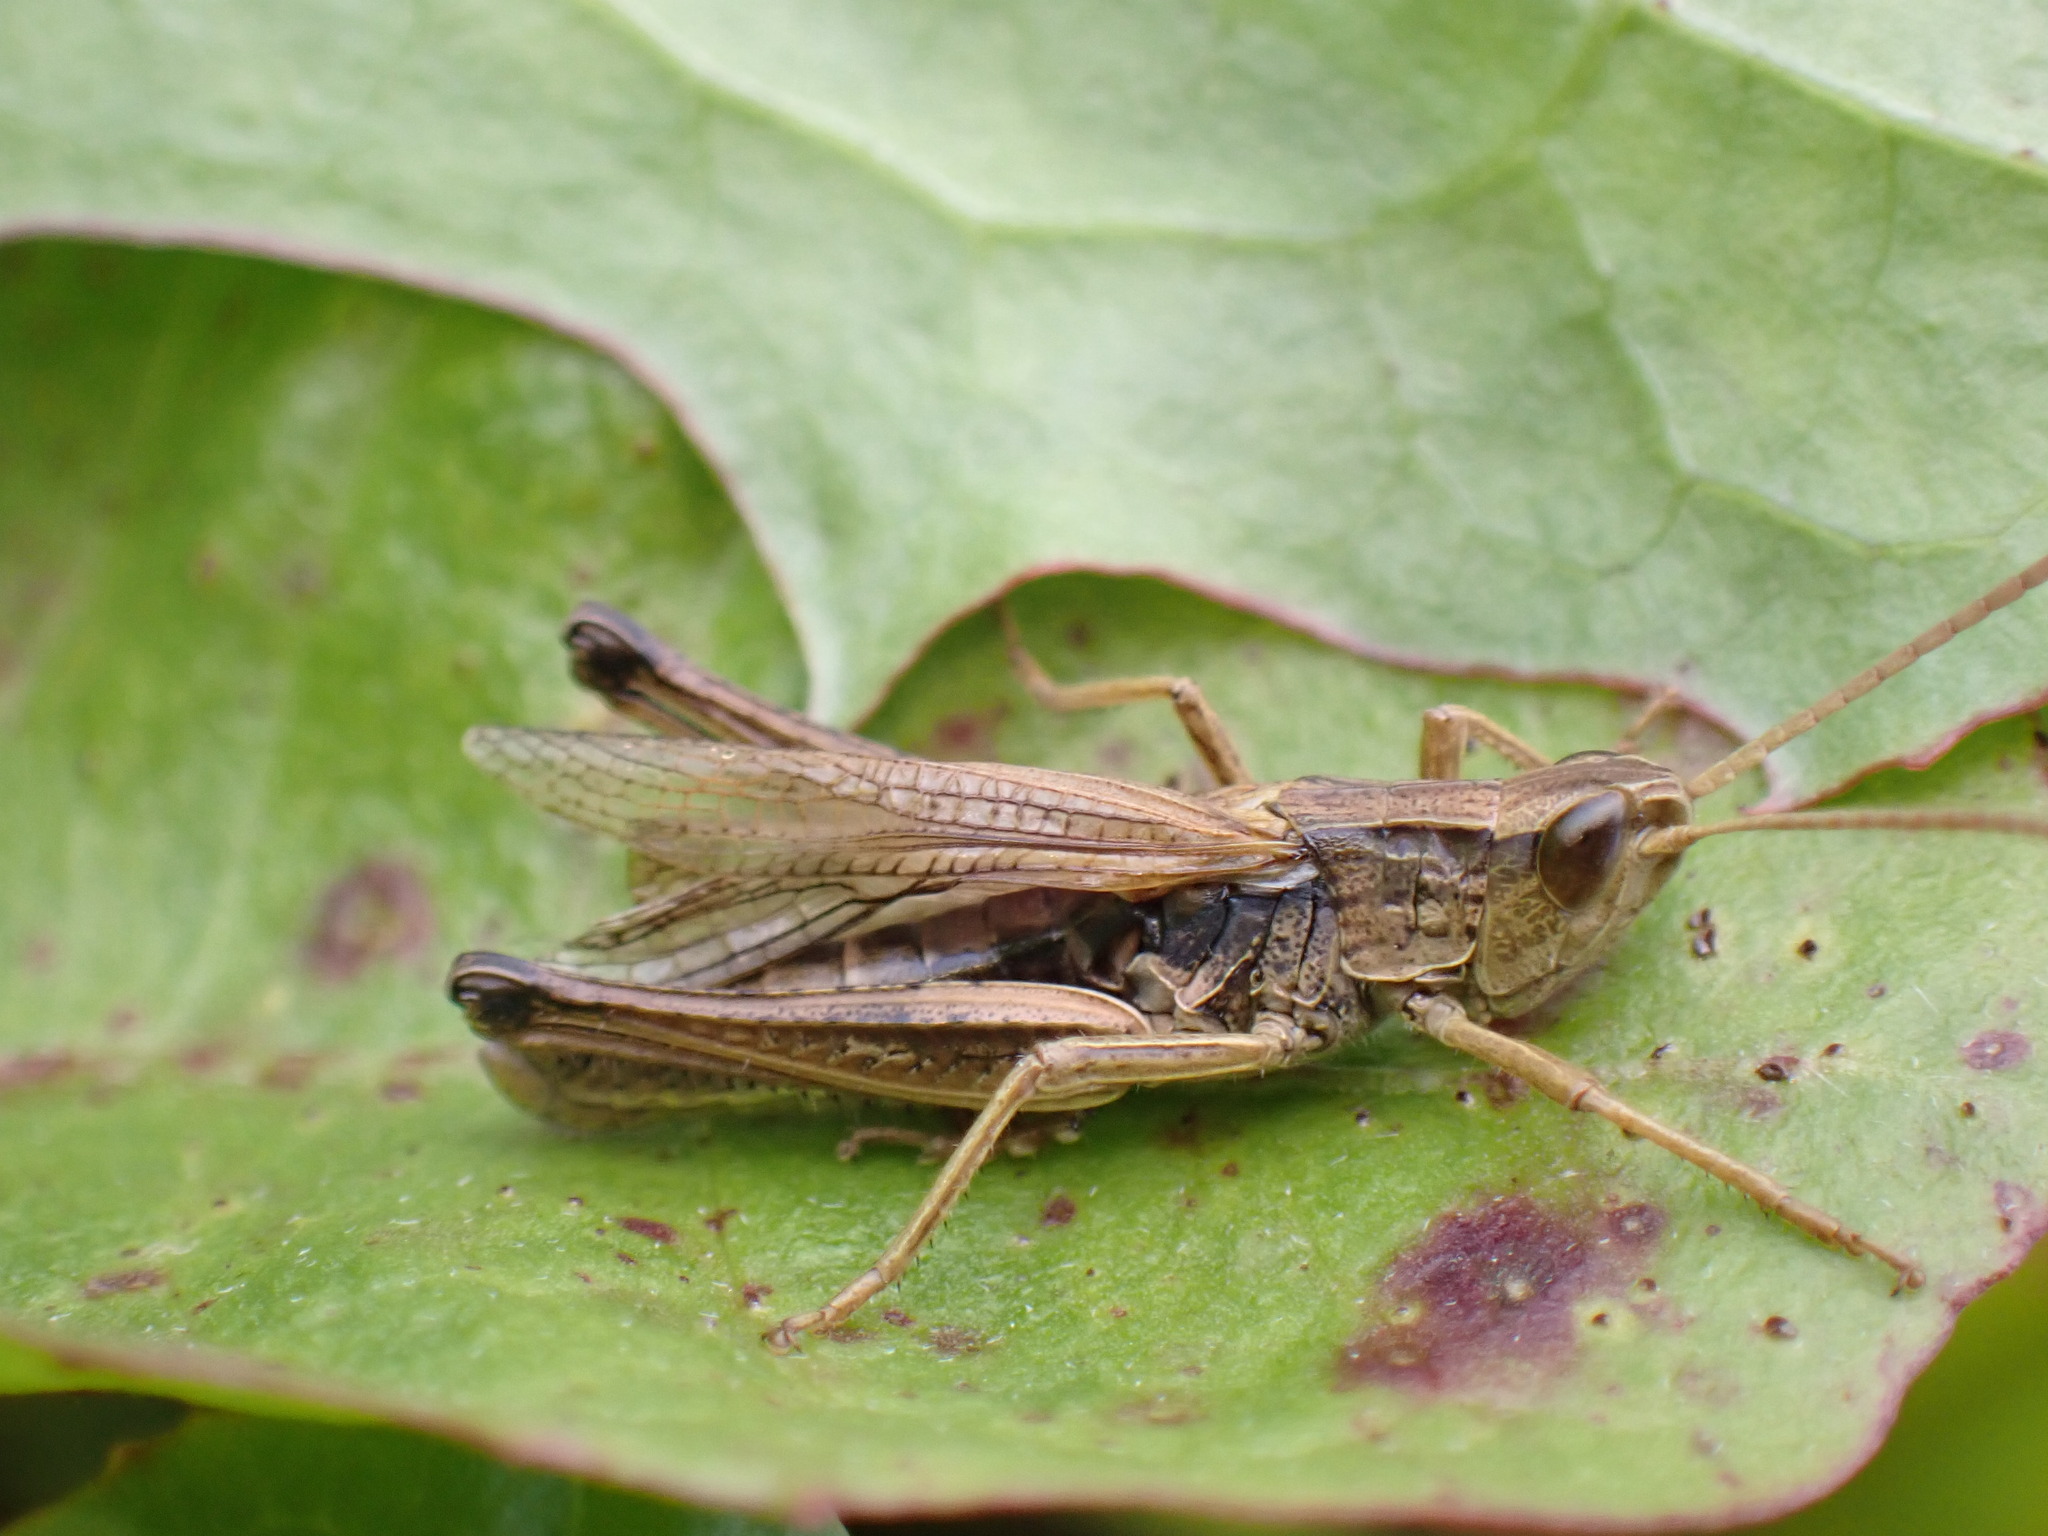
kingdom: Animalia
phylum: Arthropoda
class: Insecta
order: Orthoptera
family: Acrididae
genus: Chorthippus
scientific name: Chorthippus albomarginatus
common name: Lesser marsh grasshopper
